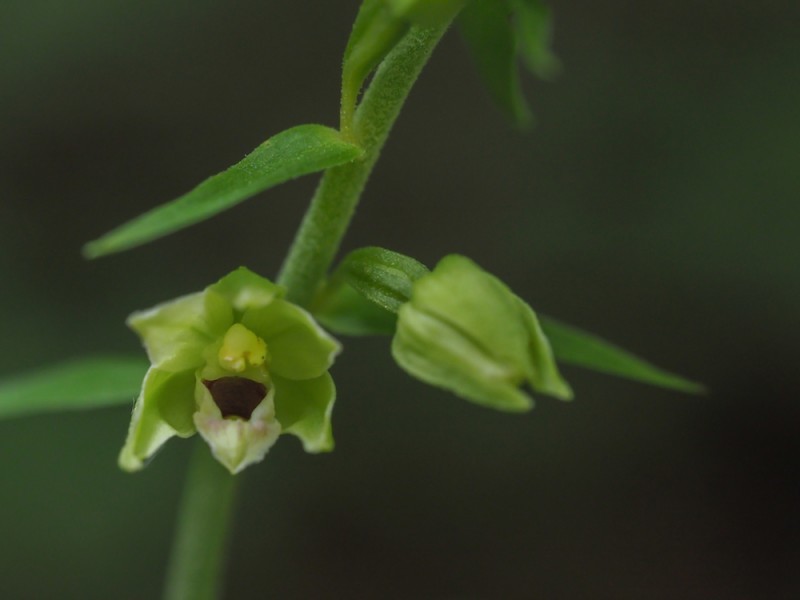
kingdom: Plantae
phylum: Tracheophyta
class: Liliopsida
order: Asparagales
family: Orchidaceae
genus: Epipactis
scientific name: Epipactis muelleri
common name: Mueller's epipactis
